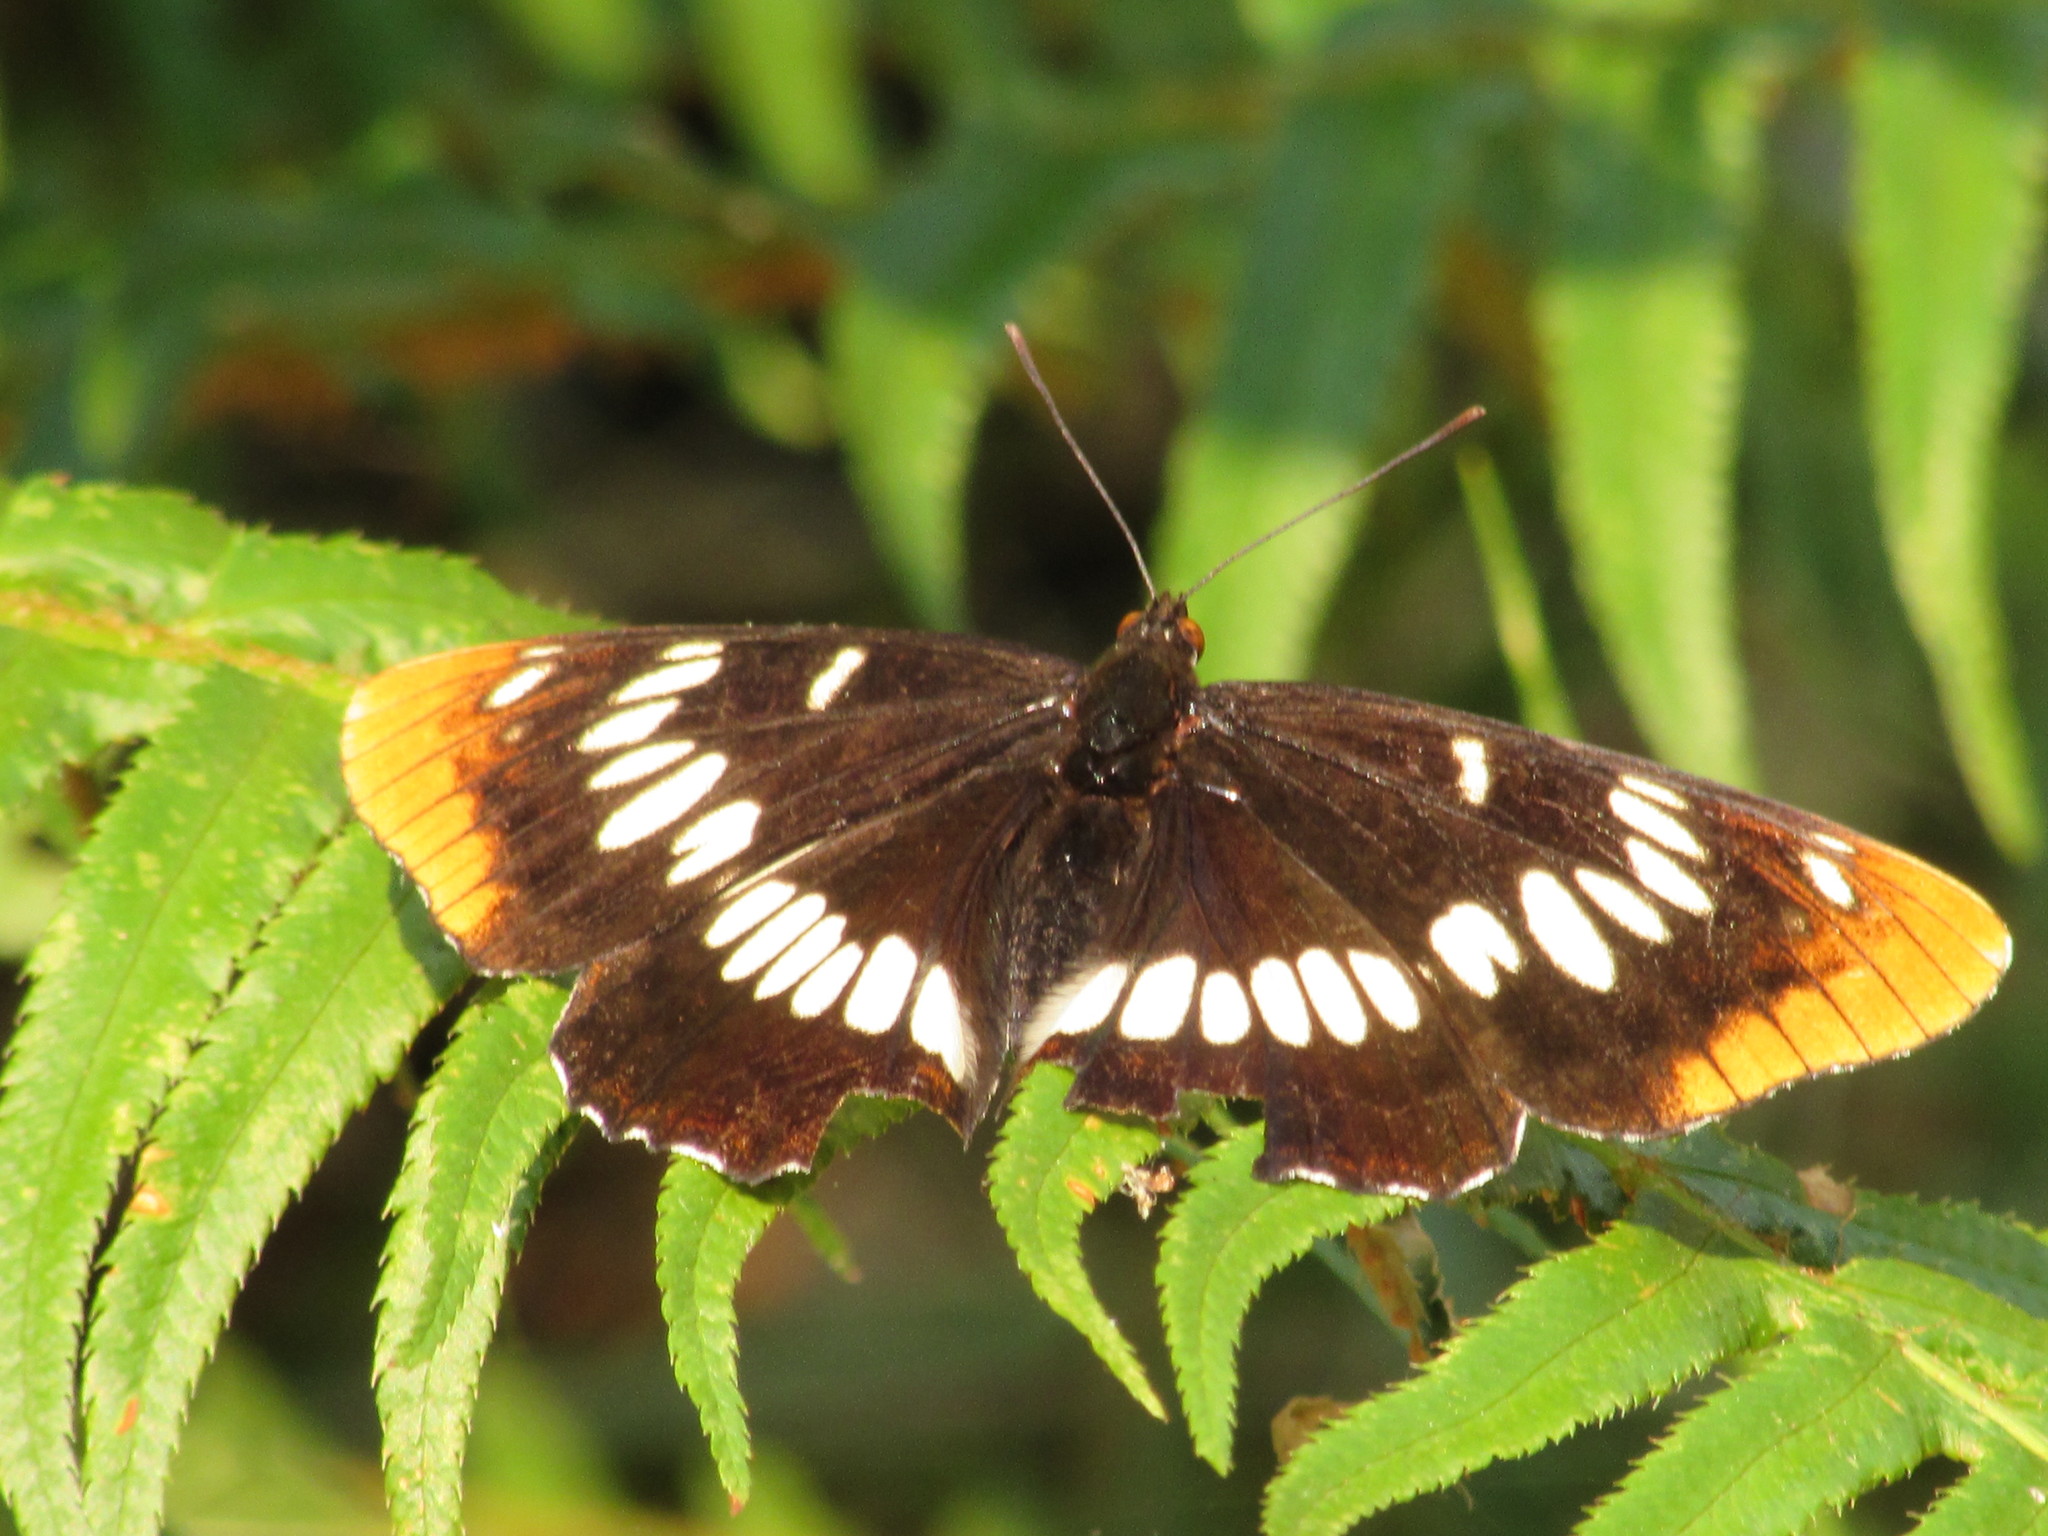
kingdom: Animalia
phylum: Arthropoda
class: Insecta
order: Lepidoptera
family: Nymphalidae
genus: Limenitis
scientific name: Limenitis lorquini
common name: Lorquin's admiral
